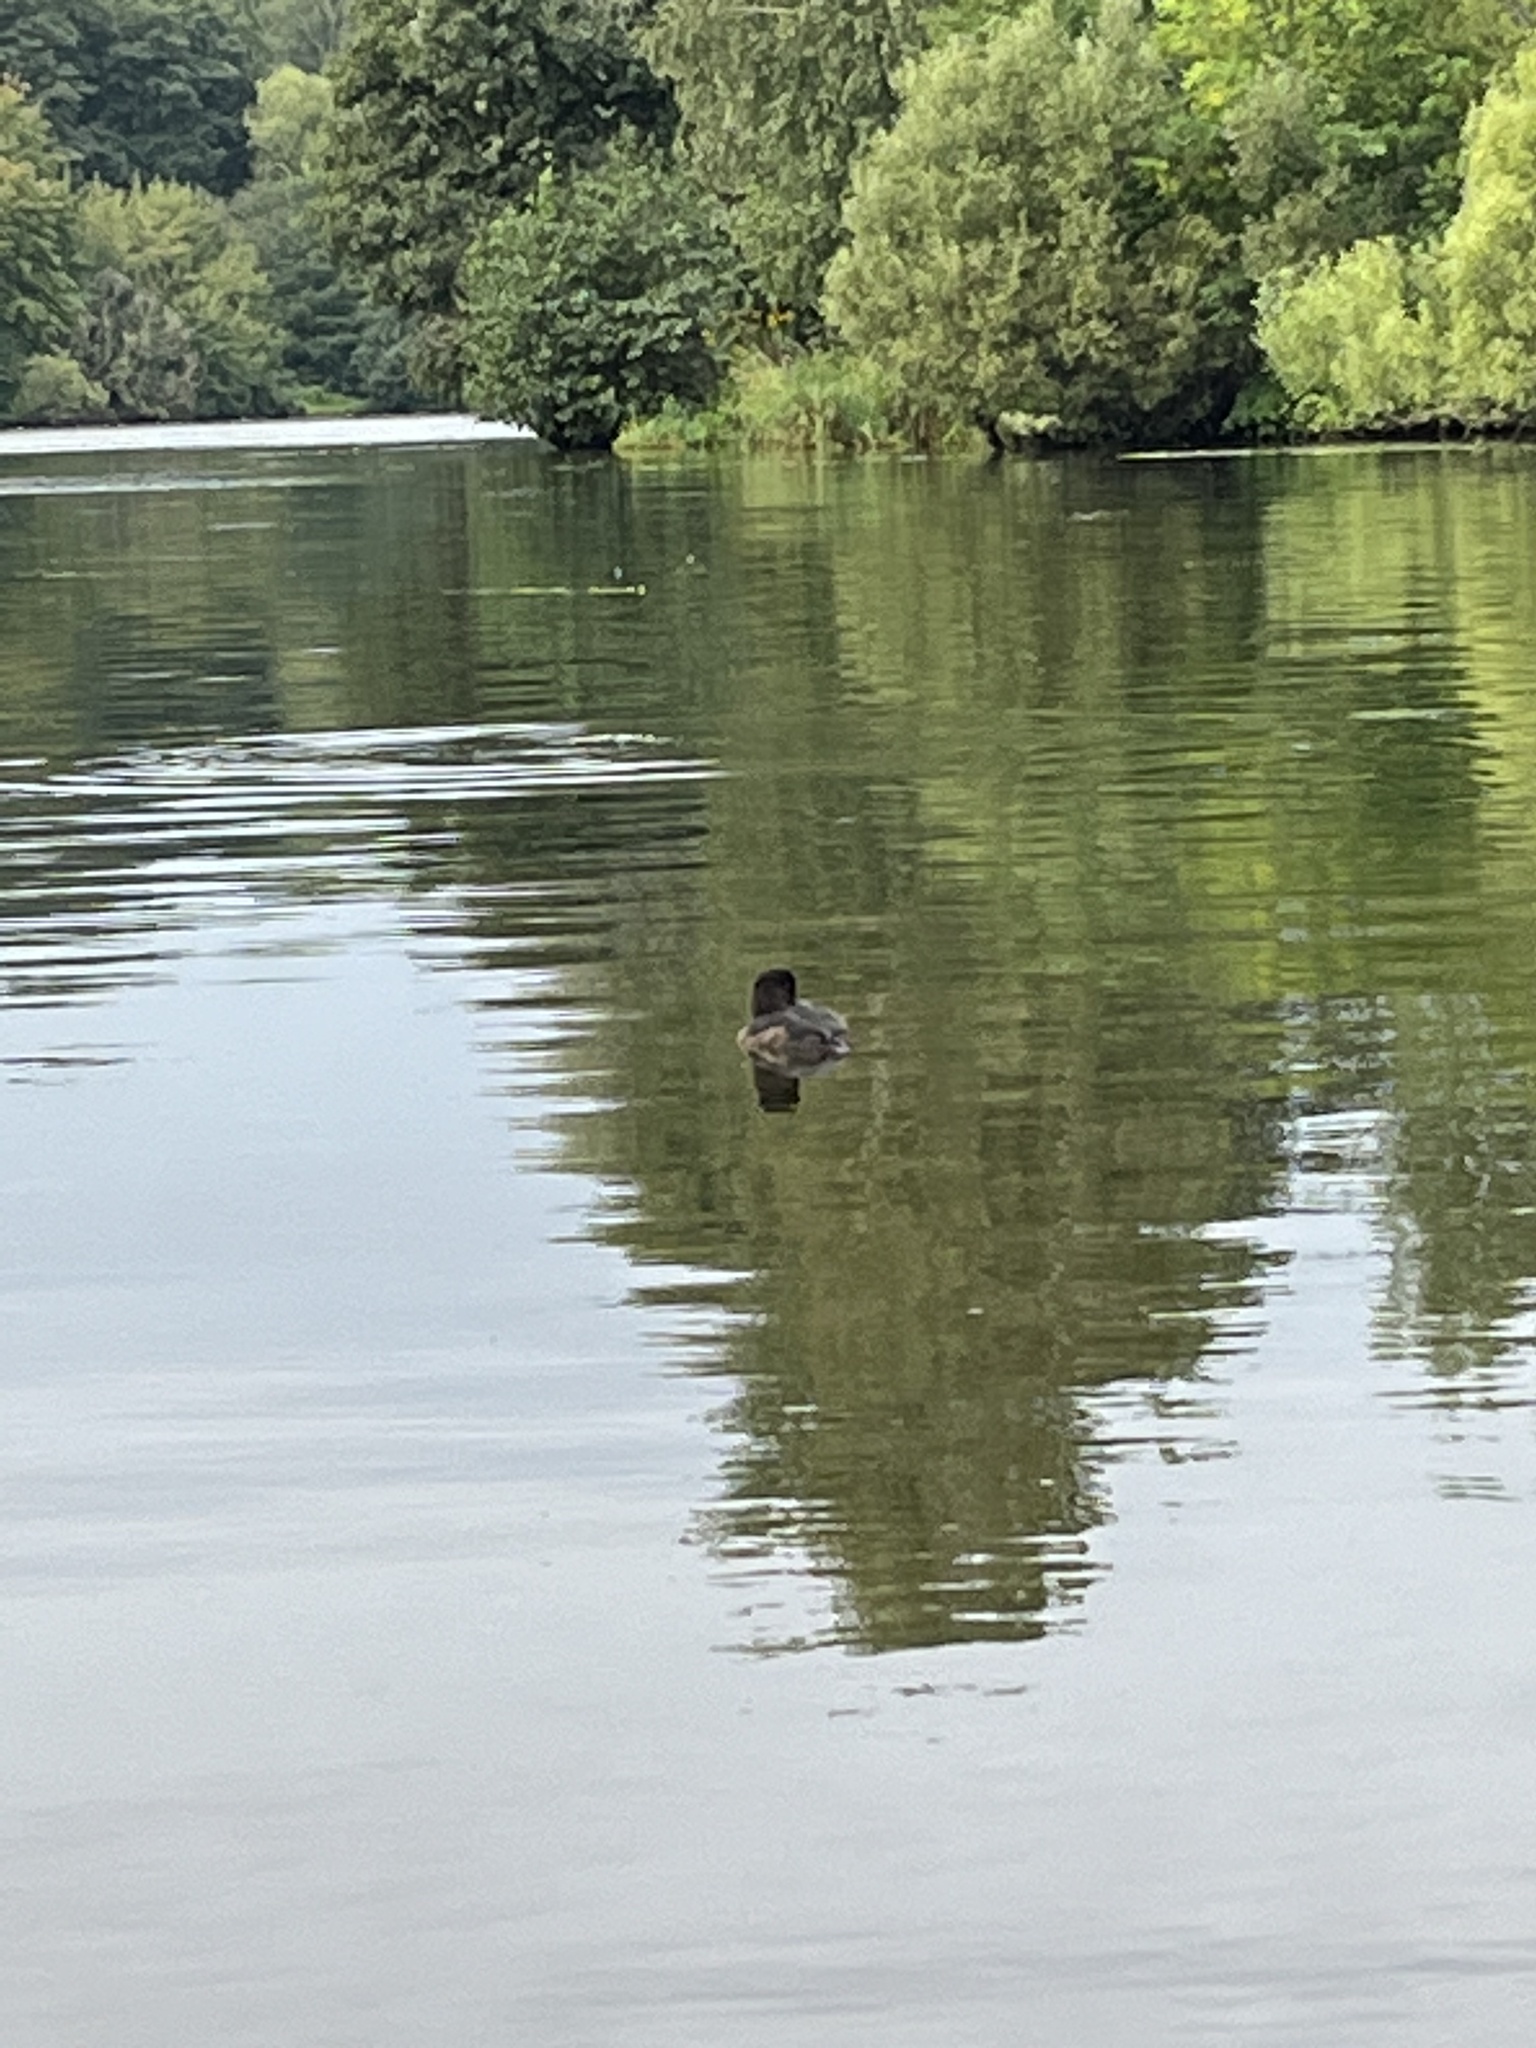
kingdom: Animalia
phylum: Chordata
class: Aves
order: Anseriformes
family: Anatidae
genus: Aythya
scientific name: Aythya fuligula
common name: Tufted duck
